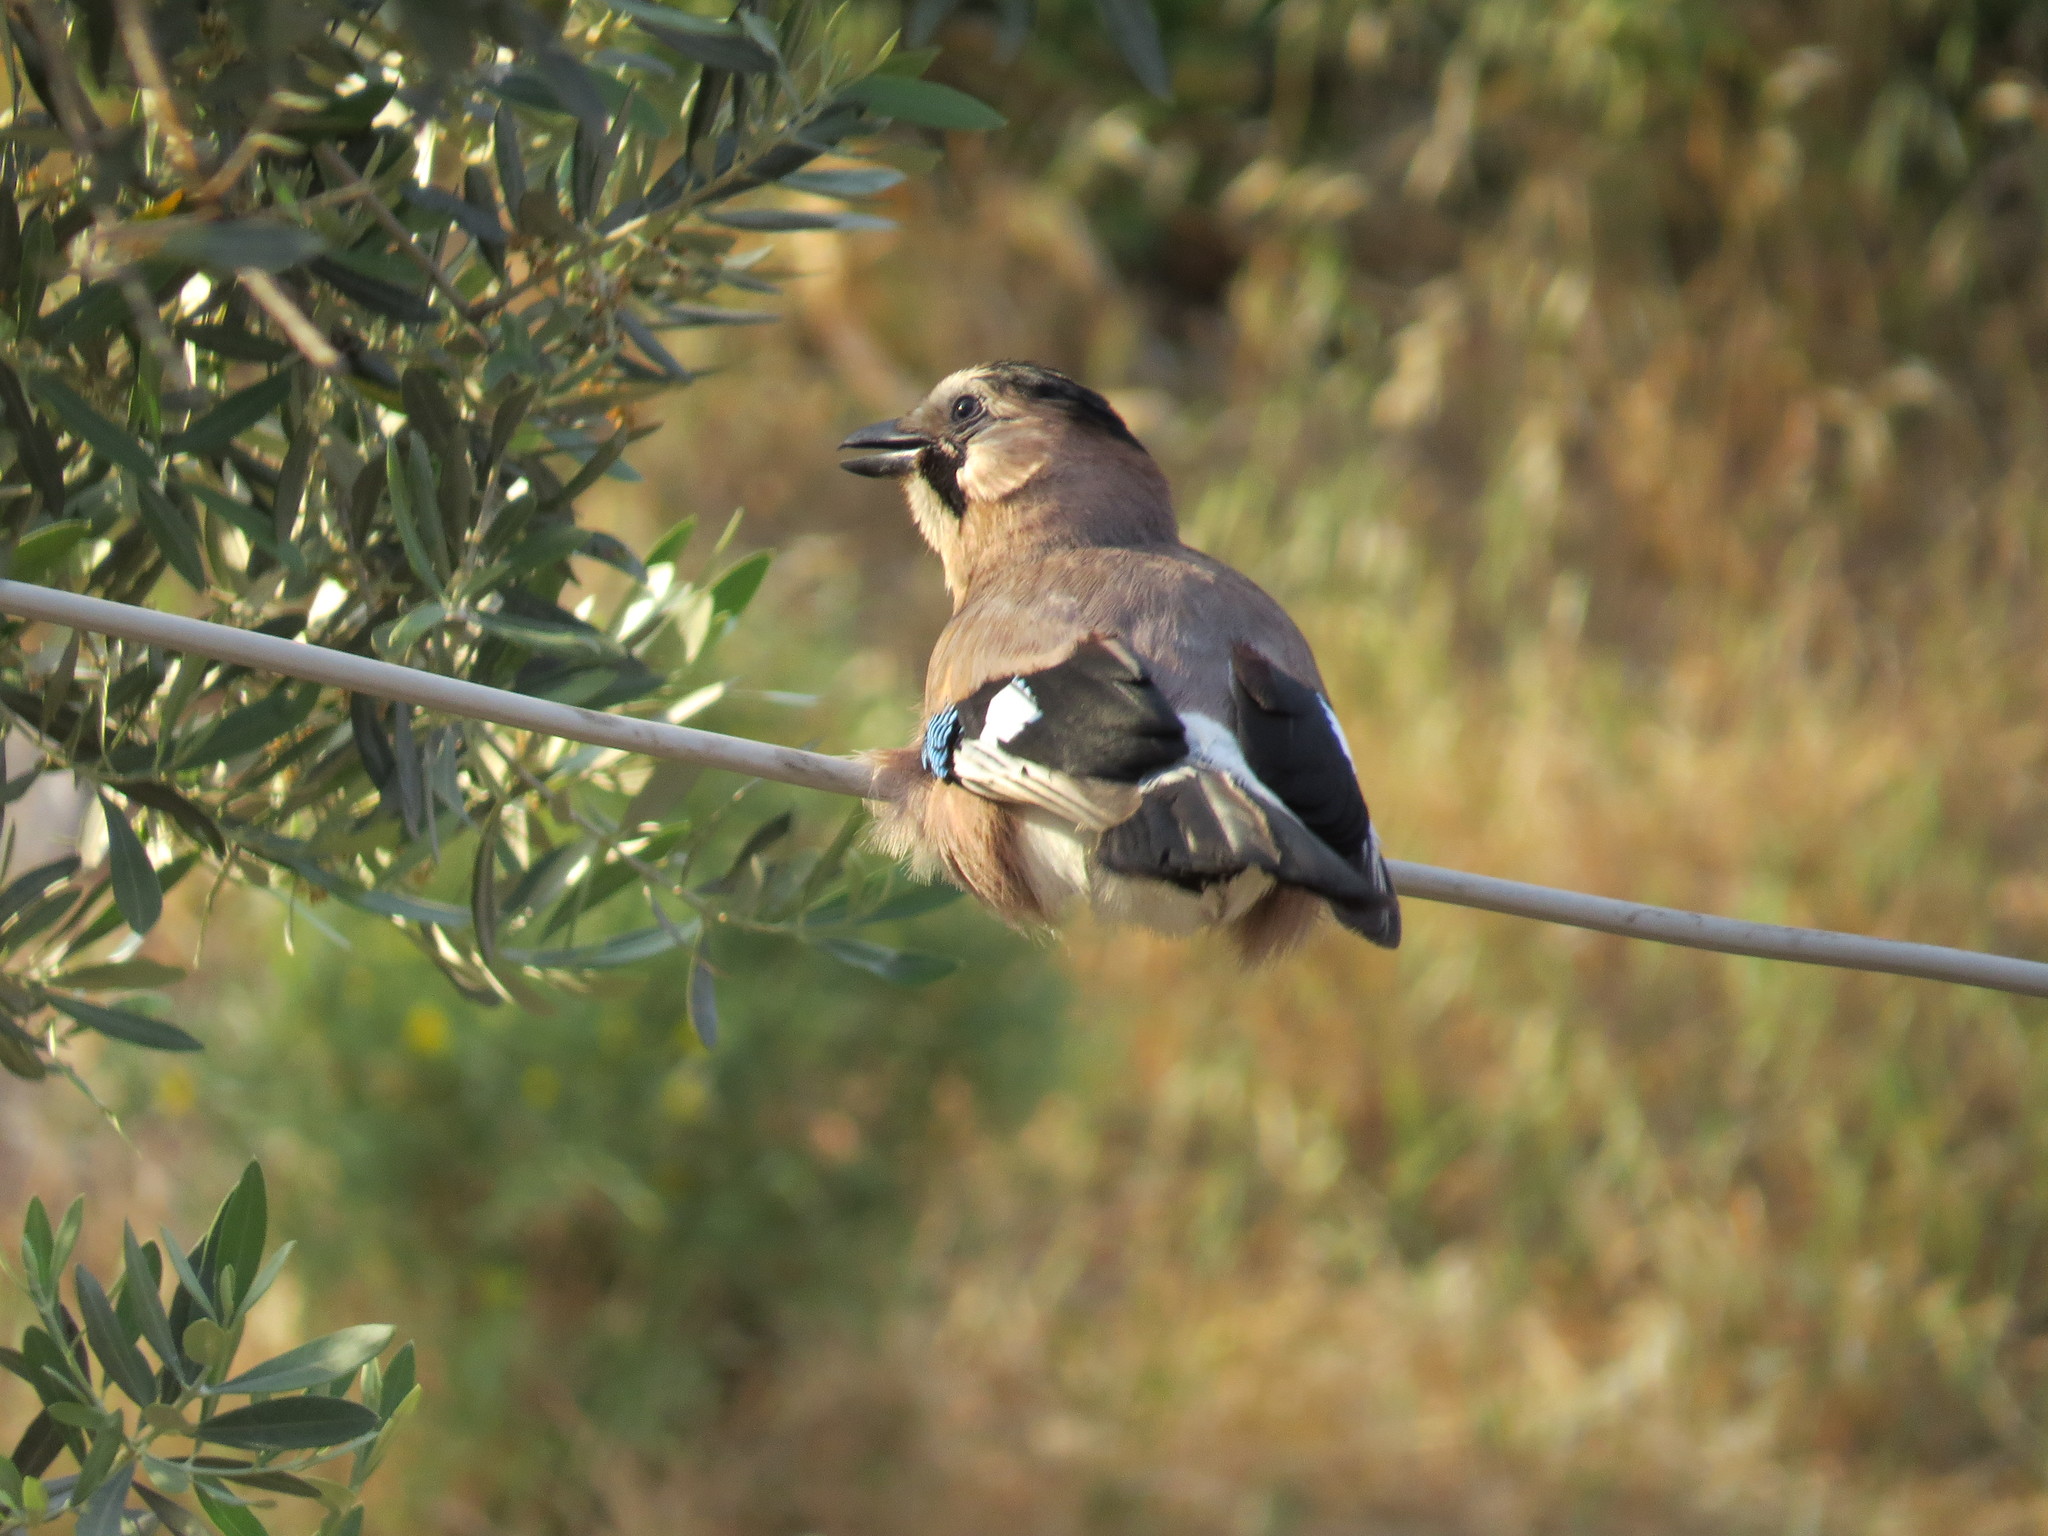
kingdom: Animalia
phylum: Chordata
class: Aves
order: Passeriformes
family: Corvidae
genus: Garrulus
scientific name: Garrulus glandarius
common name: Eurasian jay
